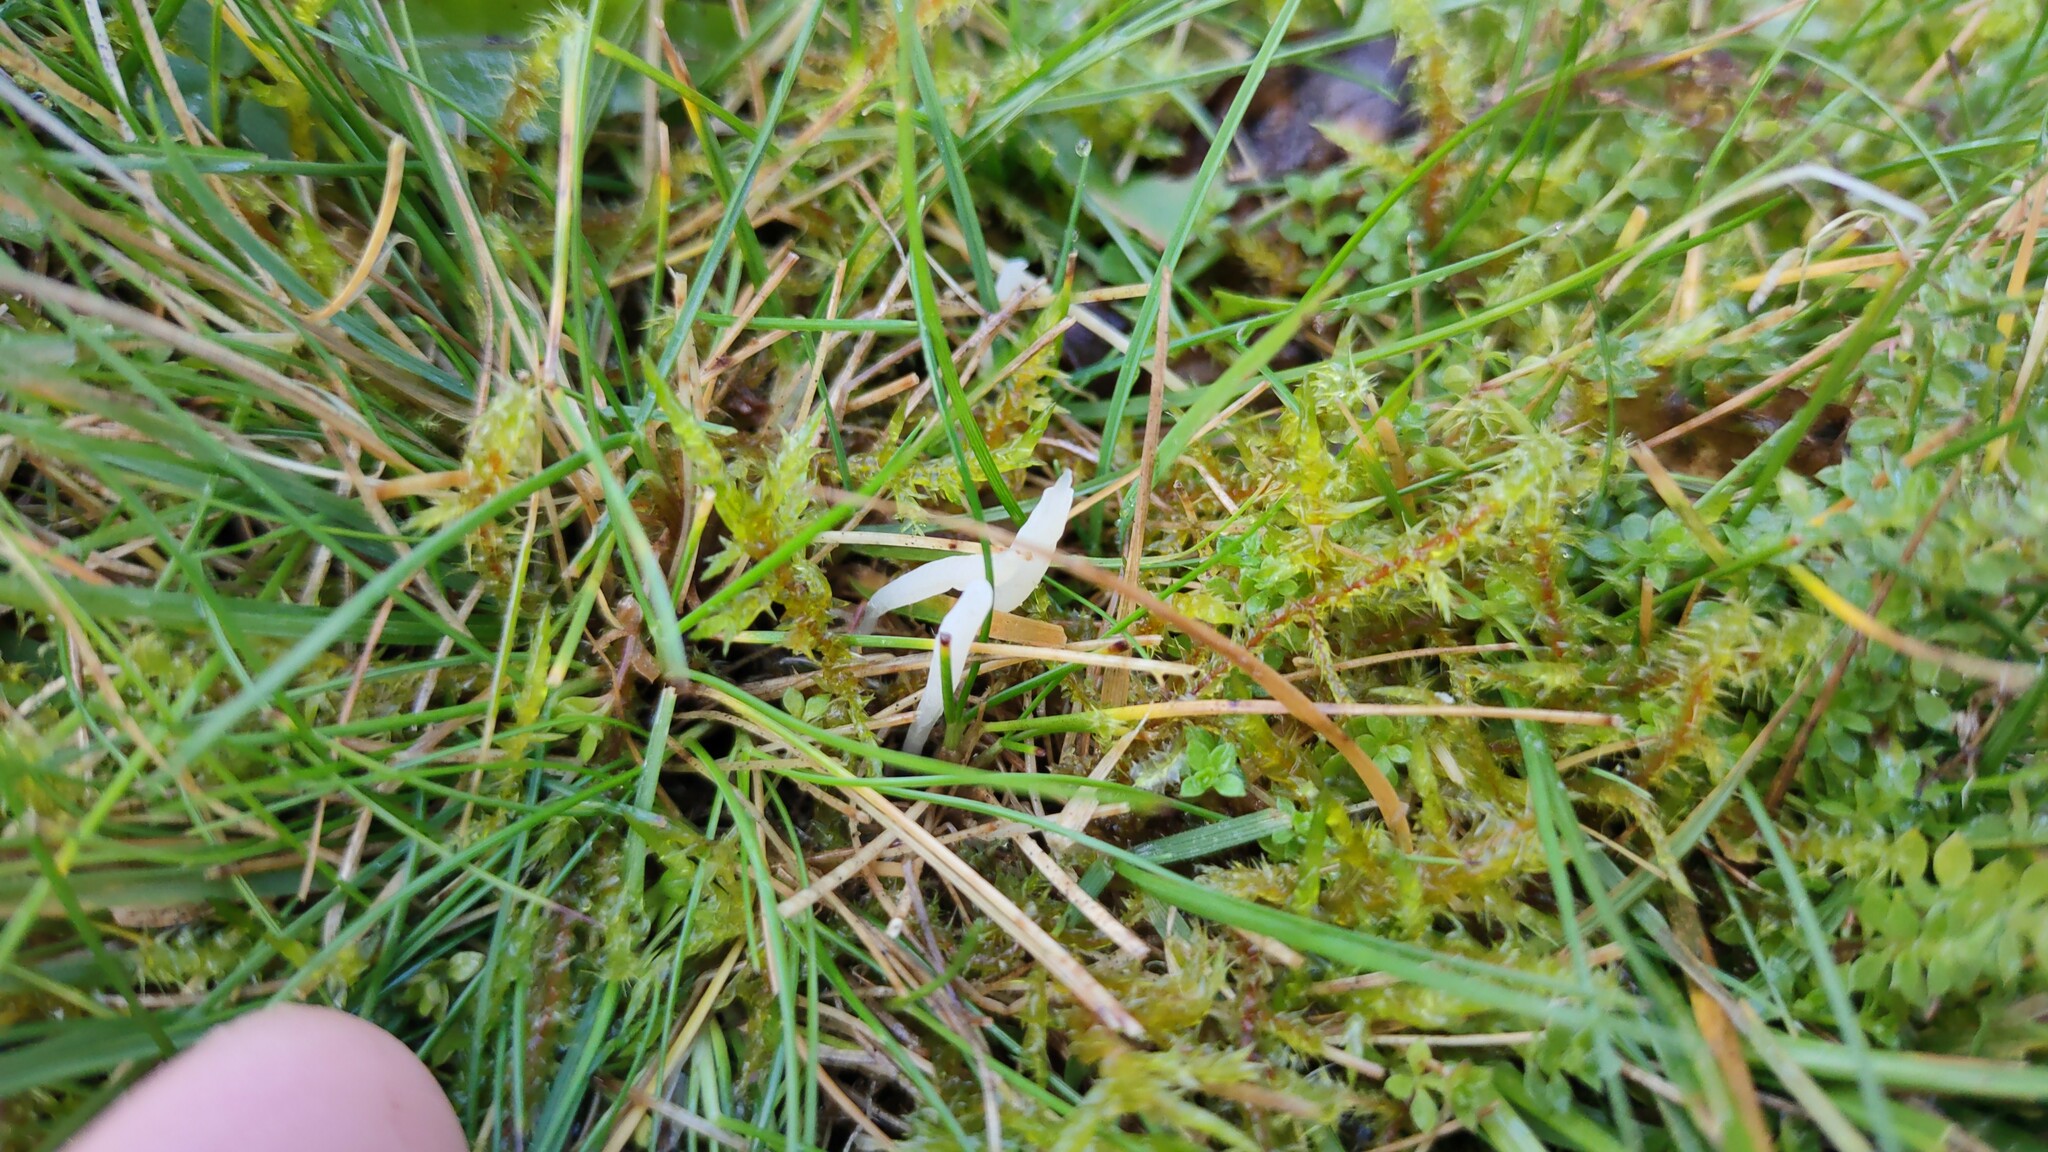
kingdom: Fungi
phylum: Basidiomycota
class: Agaricomycetes
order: Agaricales
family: Clavariaceae
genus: Clavaria
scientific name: Clavaria acuta
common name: Pointed club
